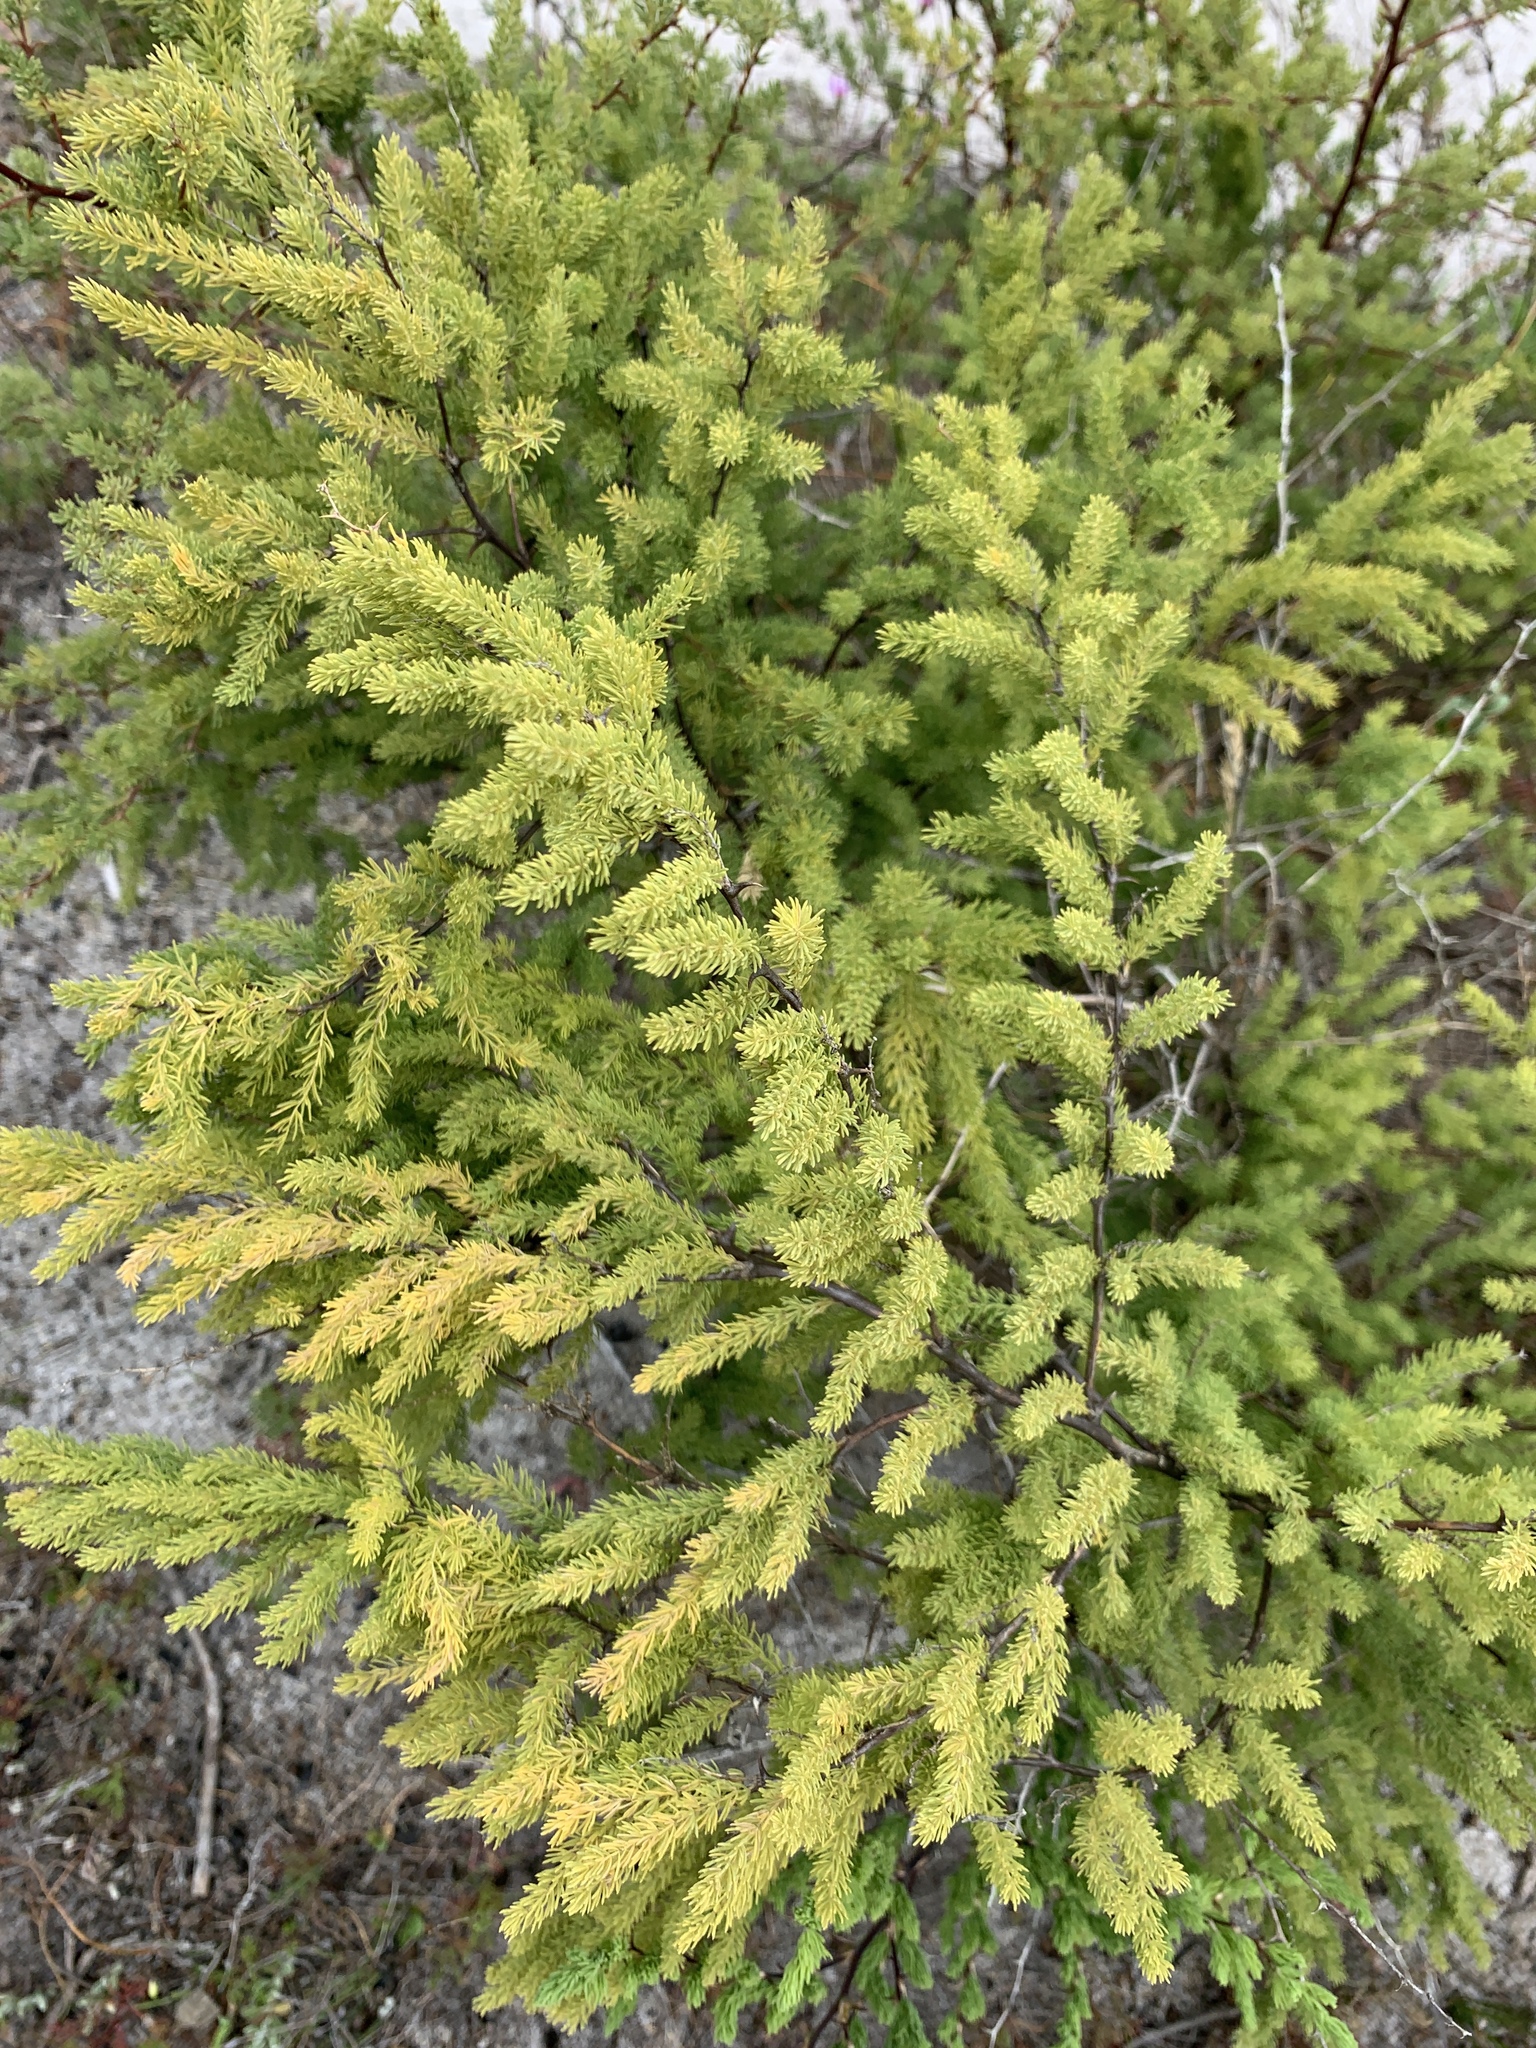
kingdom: Plantae
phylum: Tracheophyta
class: Liliopsida
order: Asparagales
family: Asparagaceae
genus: Asparagus
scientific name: Asparagus rubicundus
